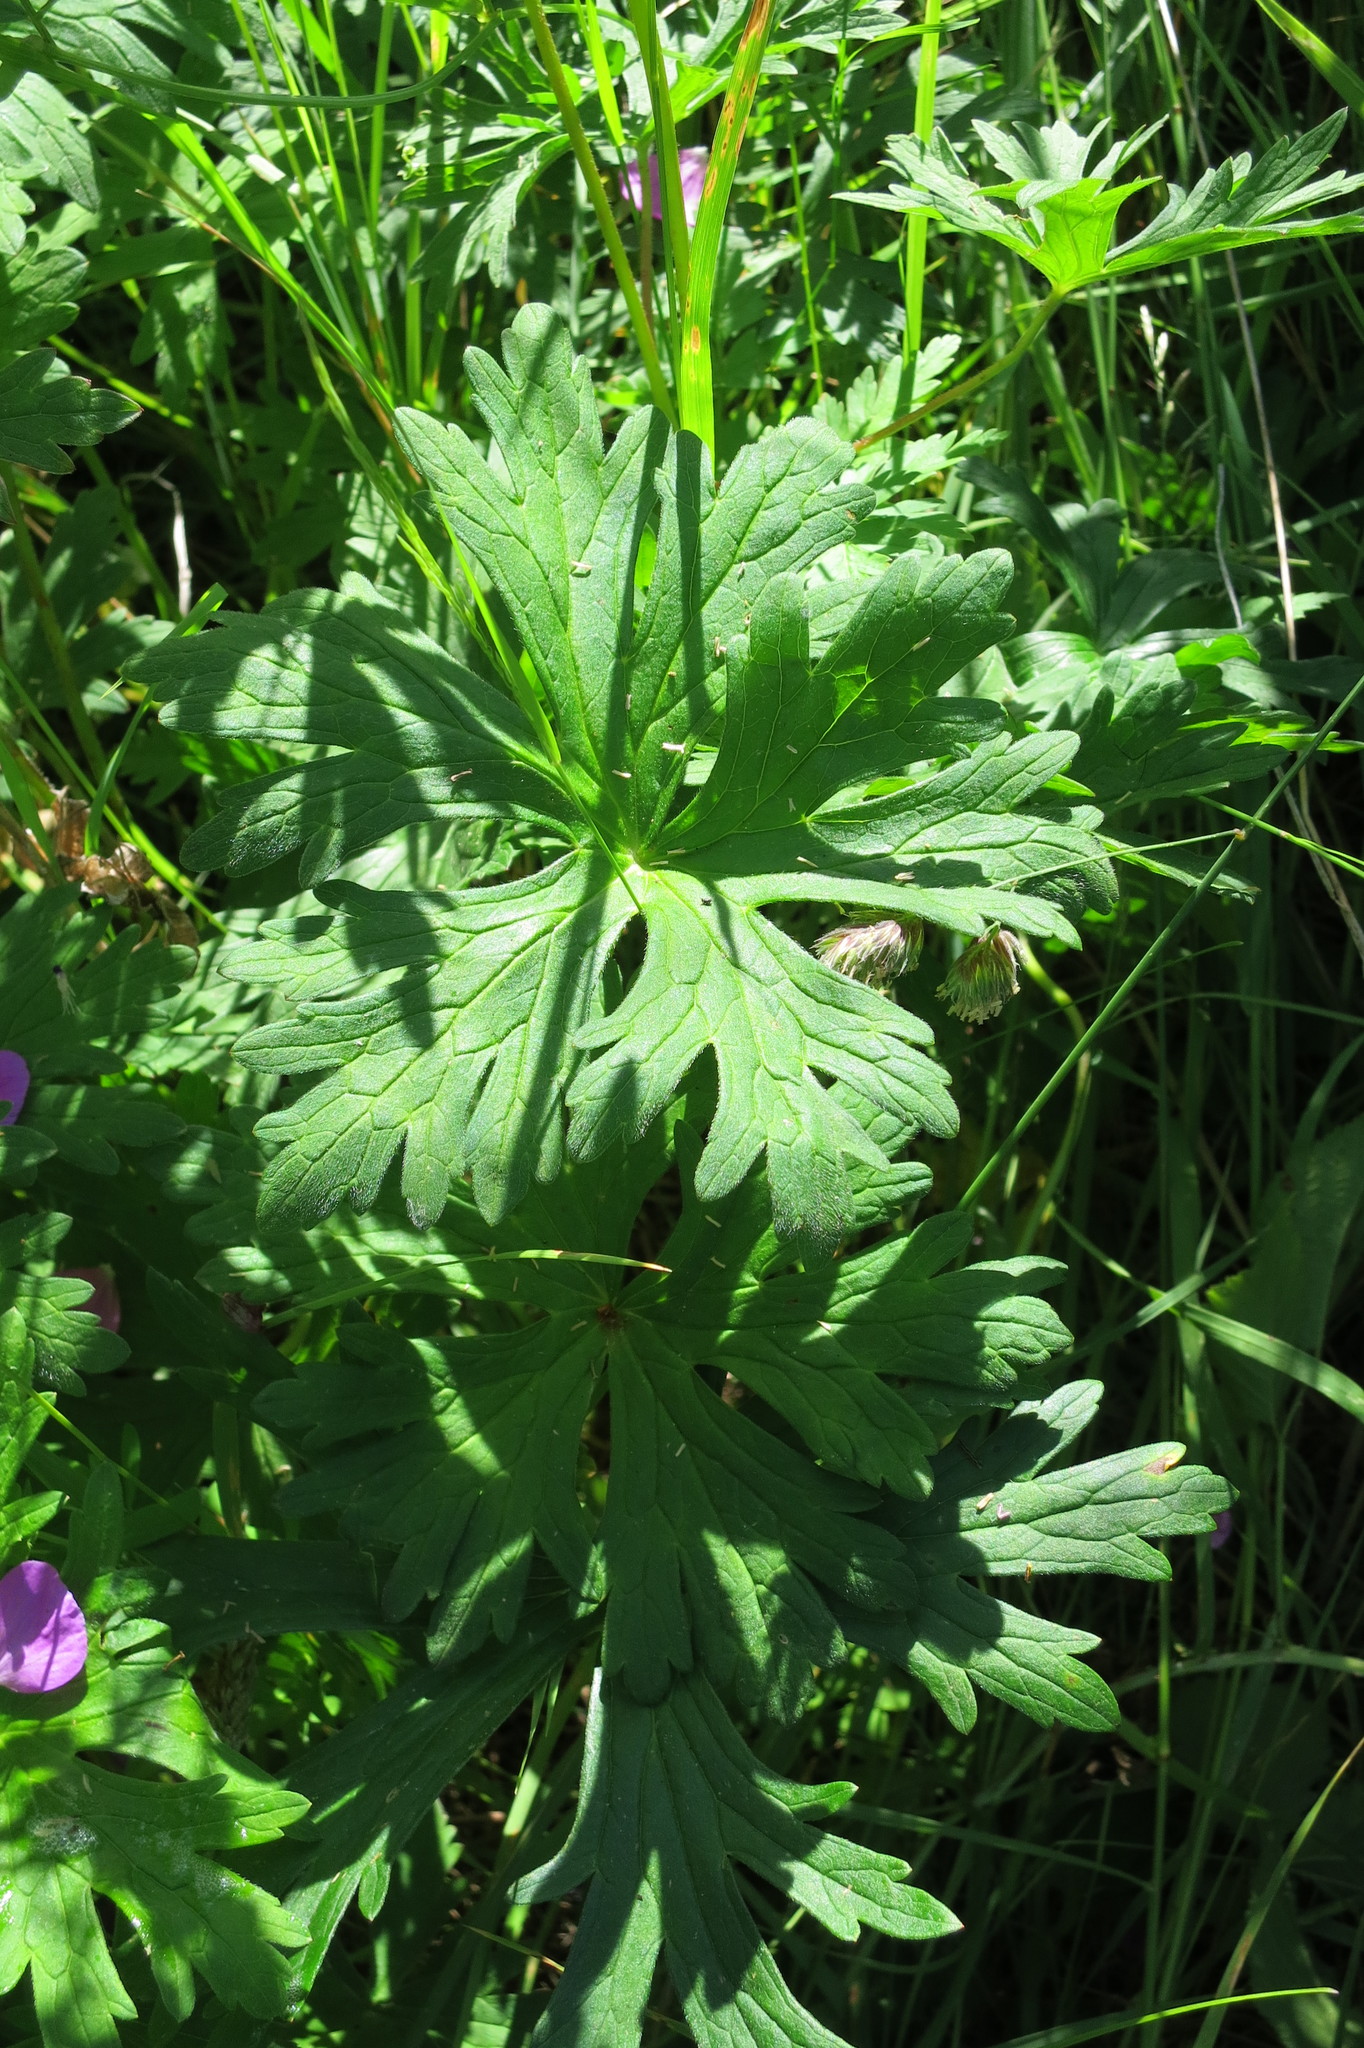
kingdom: Plantae
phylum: Tracheophyta
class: Magnoliopsida
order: Geraniales
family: Geraniaceae
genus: Geranium
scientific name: Geranium oreganum
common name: Oregon crane's-bill
